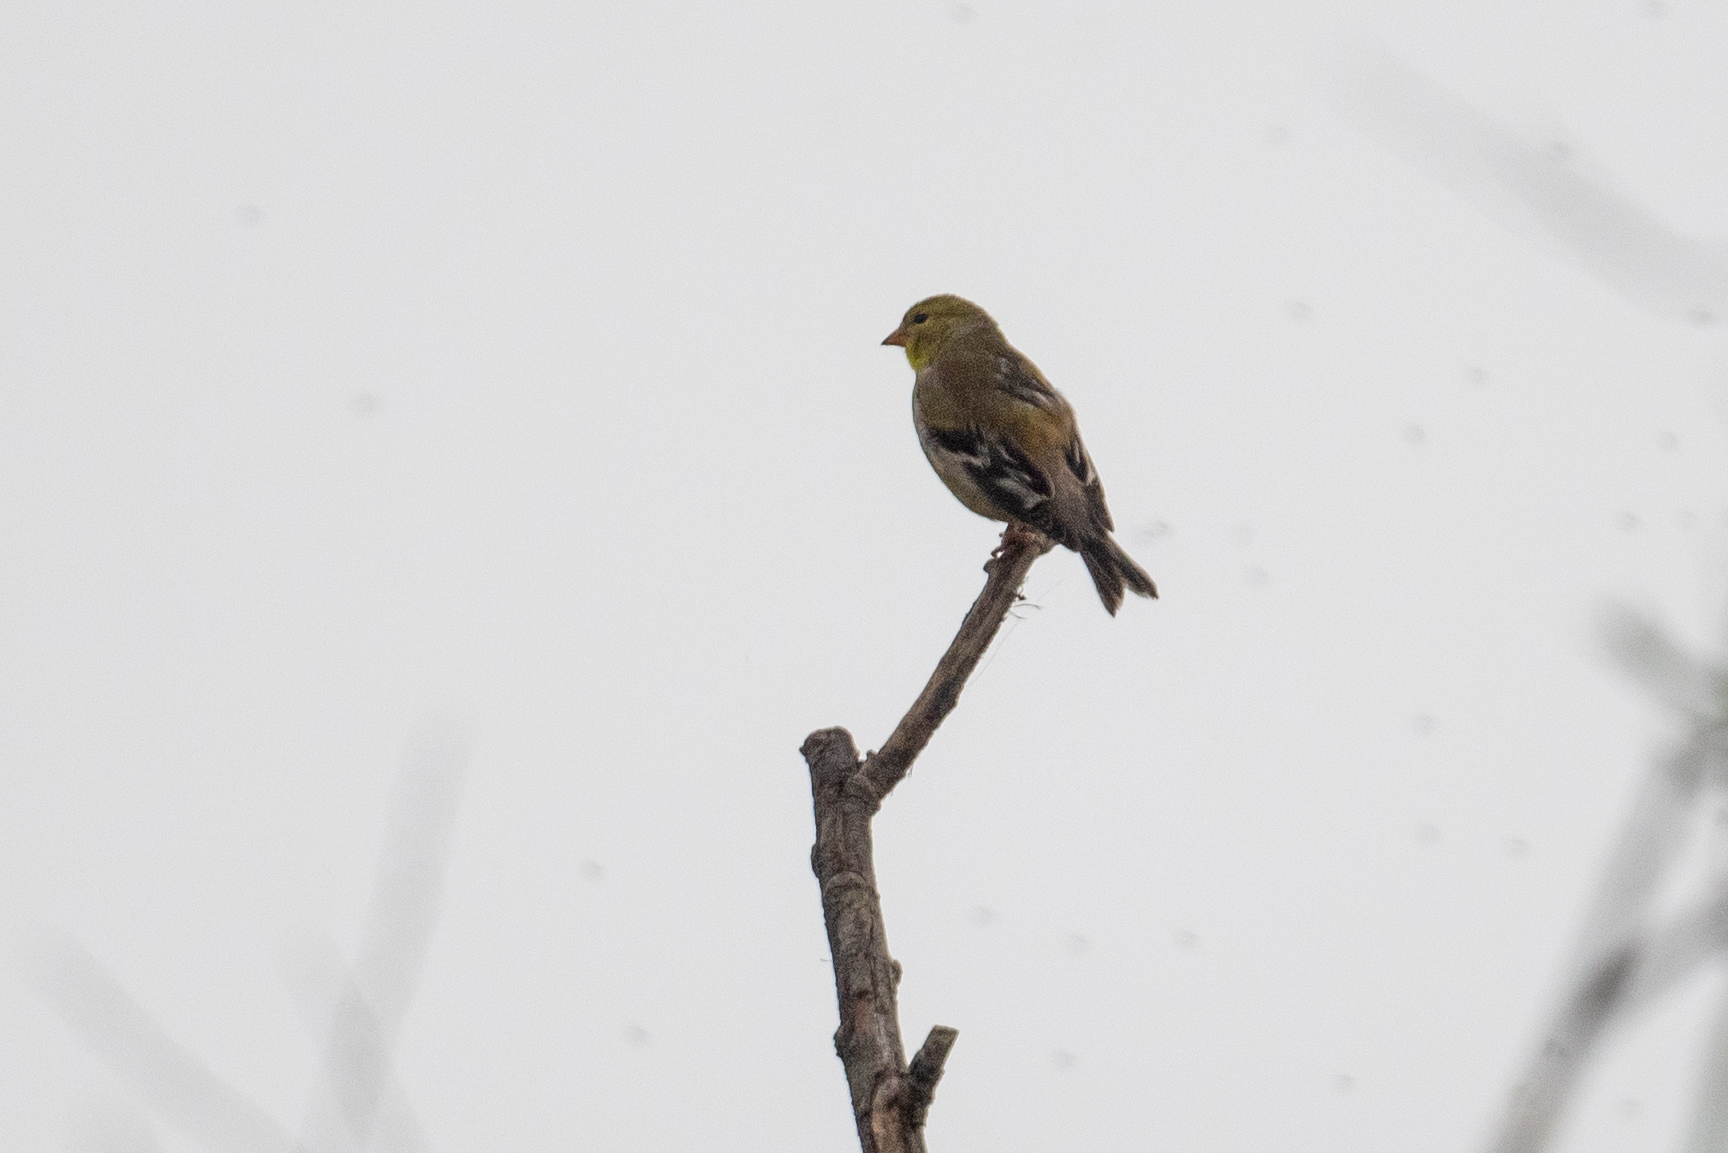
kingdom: Animalia
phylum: Chordata
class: Aves
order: Passeriformes
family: Fringillidae
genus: Spinus
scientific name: Spinus tristis
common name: American goldfinch
